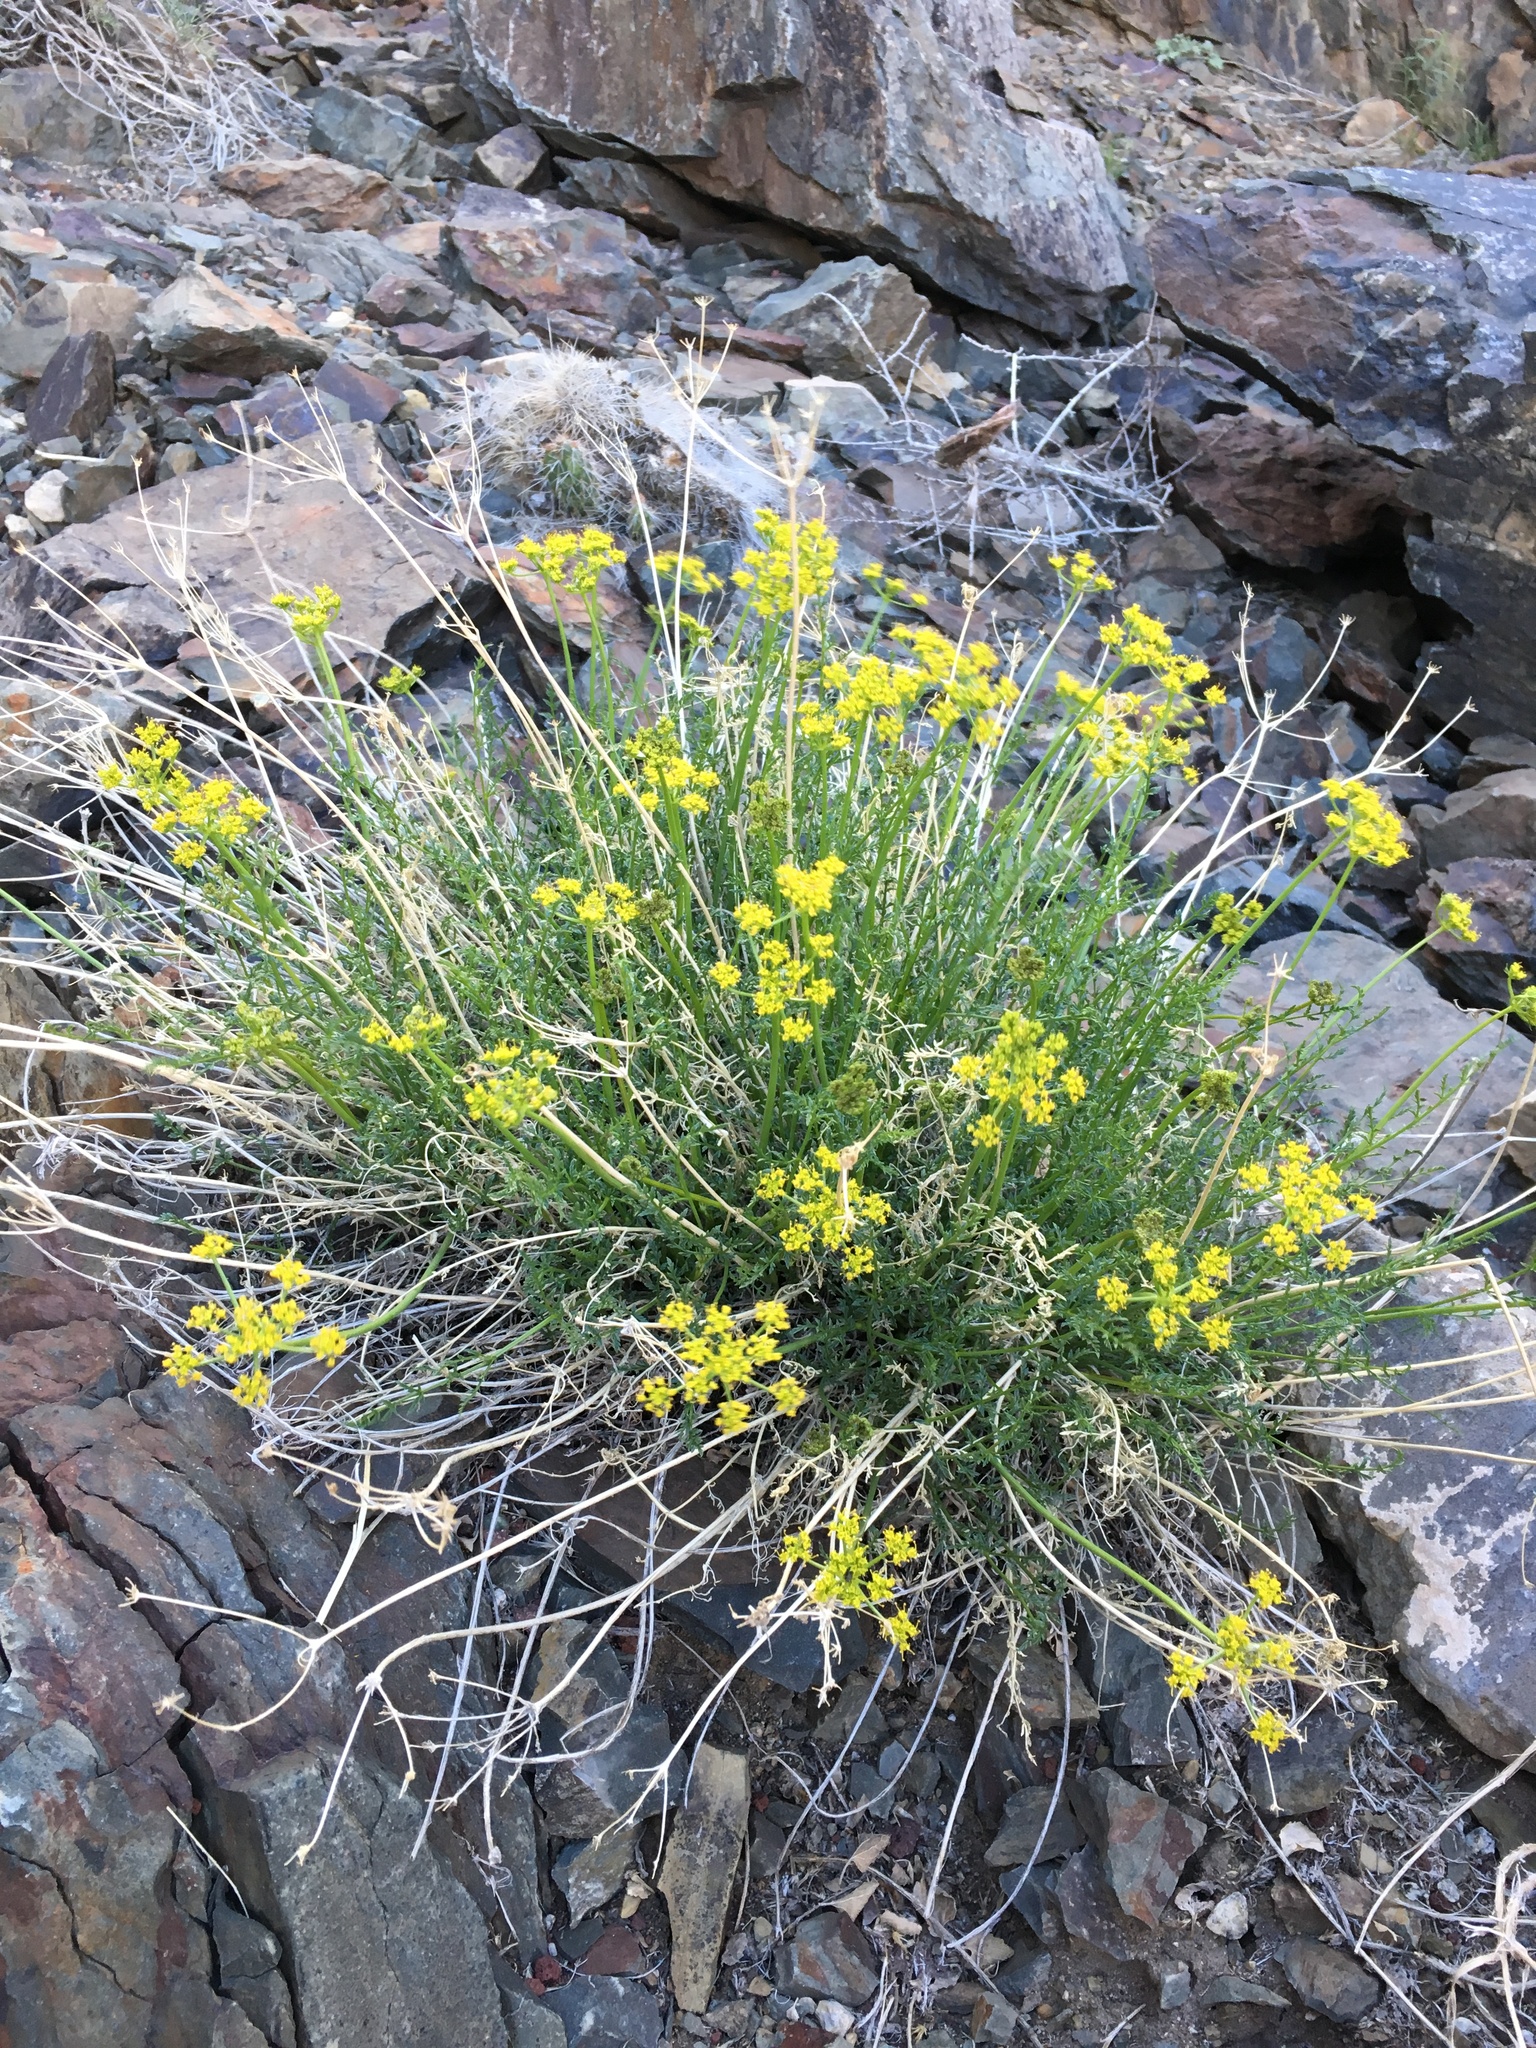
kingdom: Plantae
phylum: Tracheophyta
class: Magnoliopsida
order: Apiales
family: Apiaceae
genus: Pteryxia
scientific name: Pteryxia petraea
